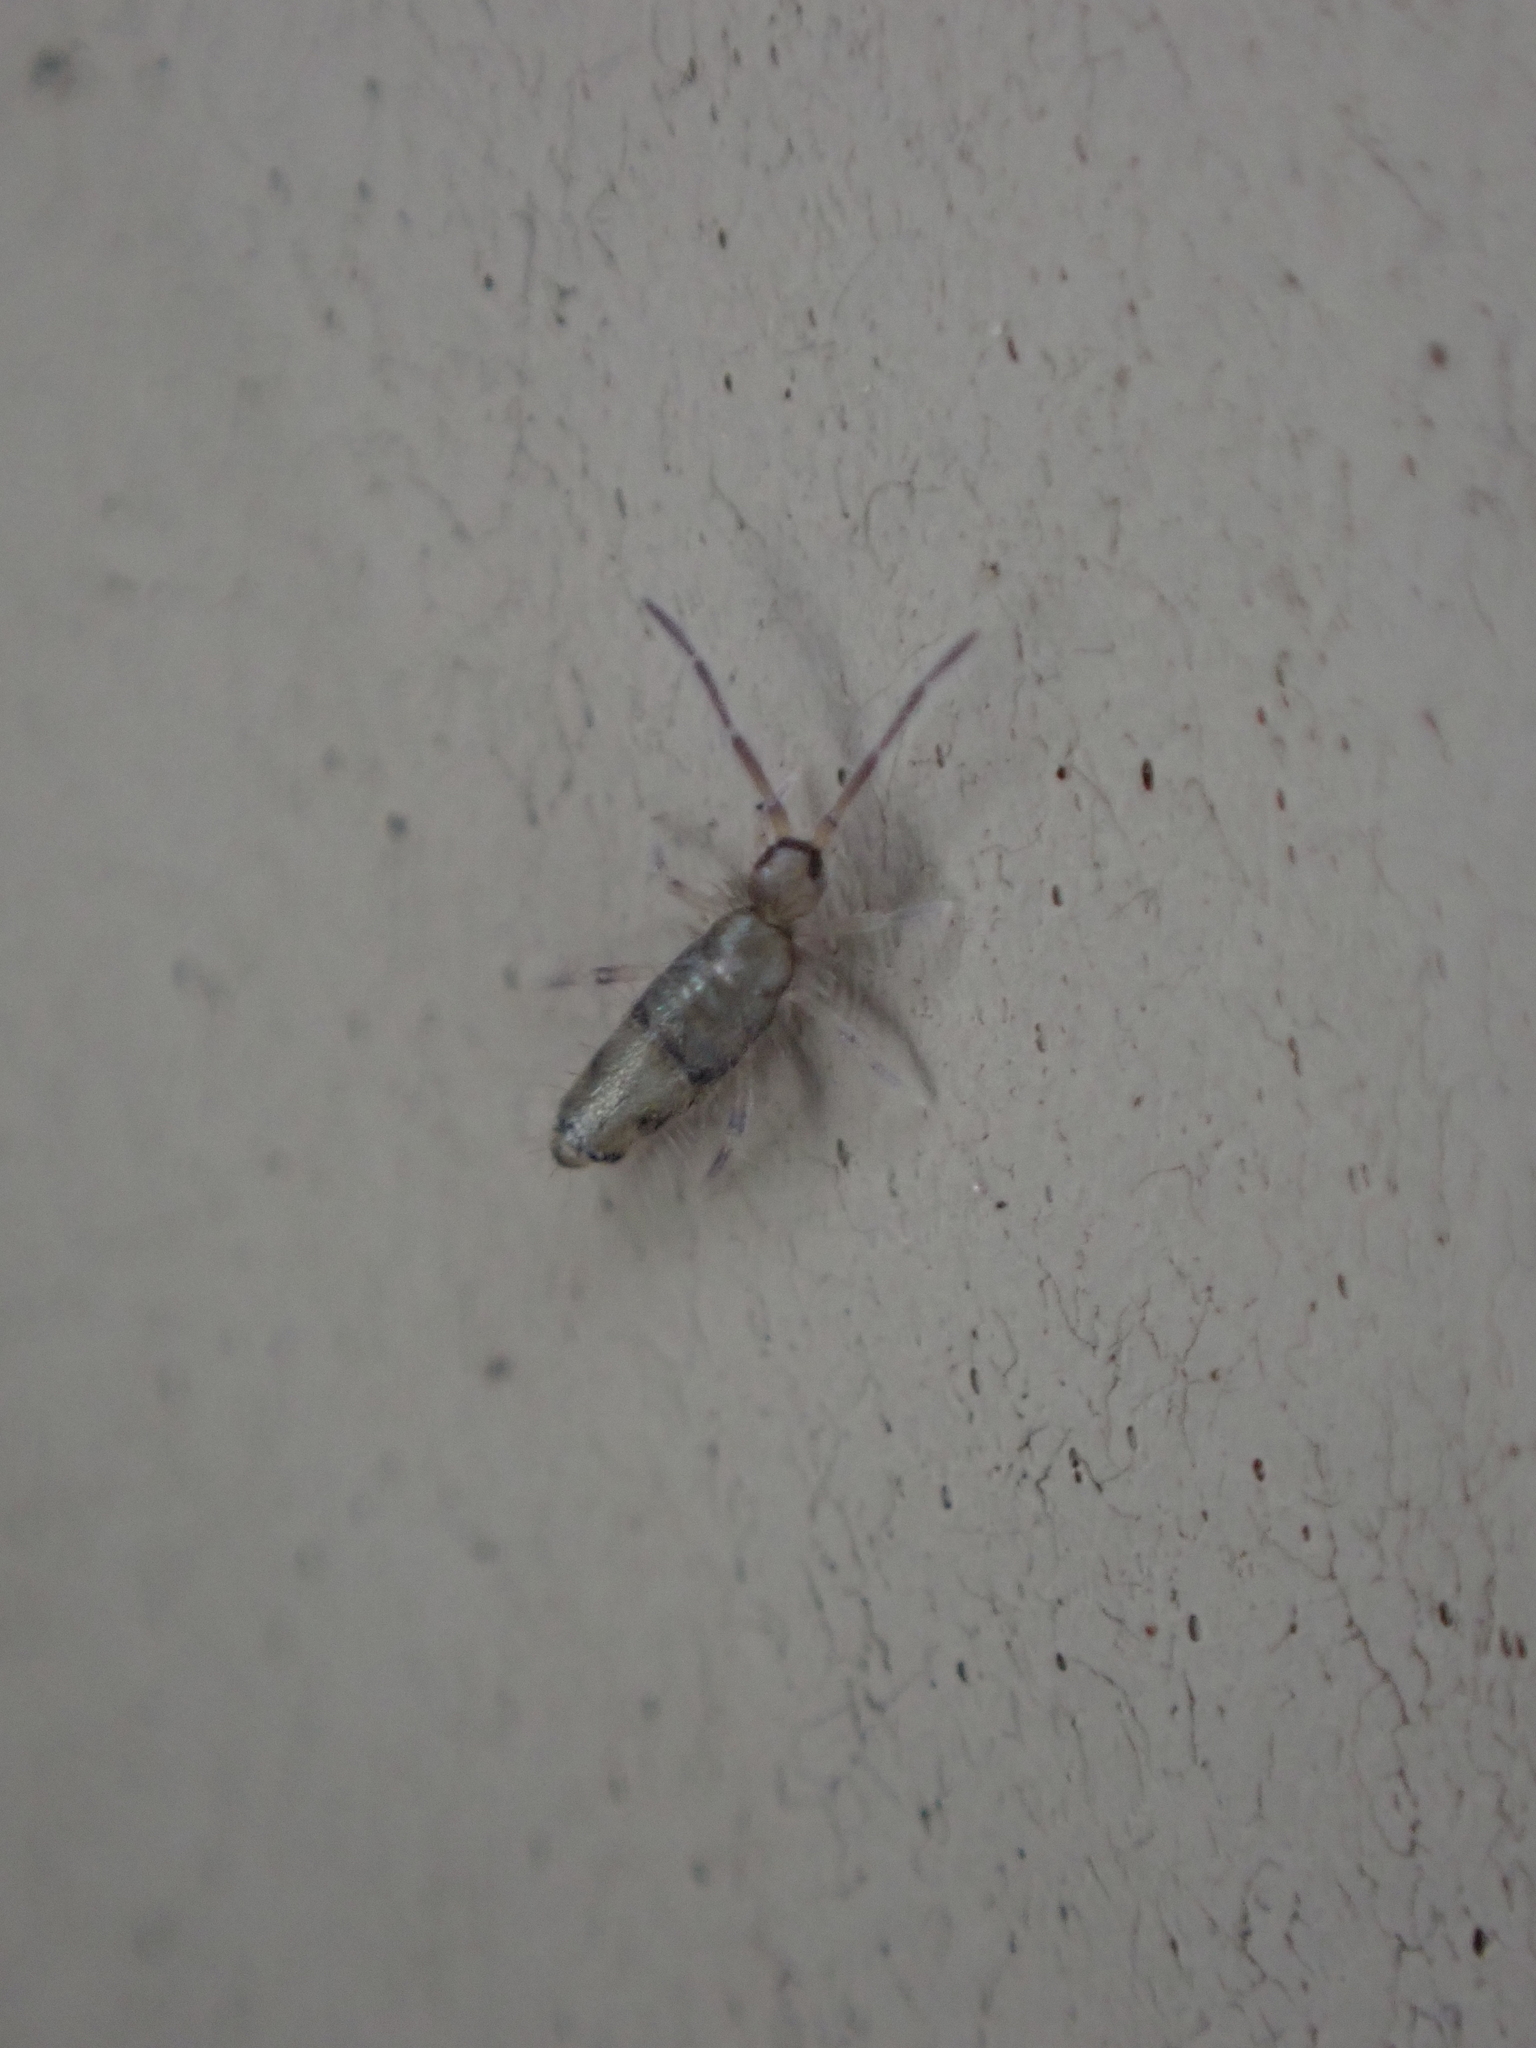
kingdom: Animalia
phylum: Arthropoda
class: Collembola
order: Entomobryomorpha
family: Entomobryidae
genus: Willowsia
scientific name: Willowsia nigromaculata
